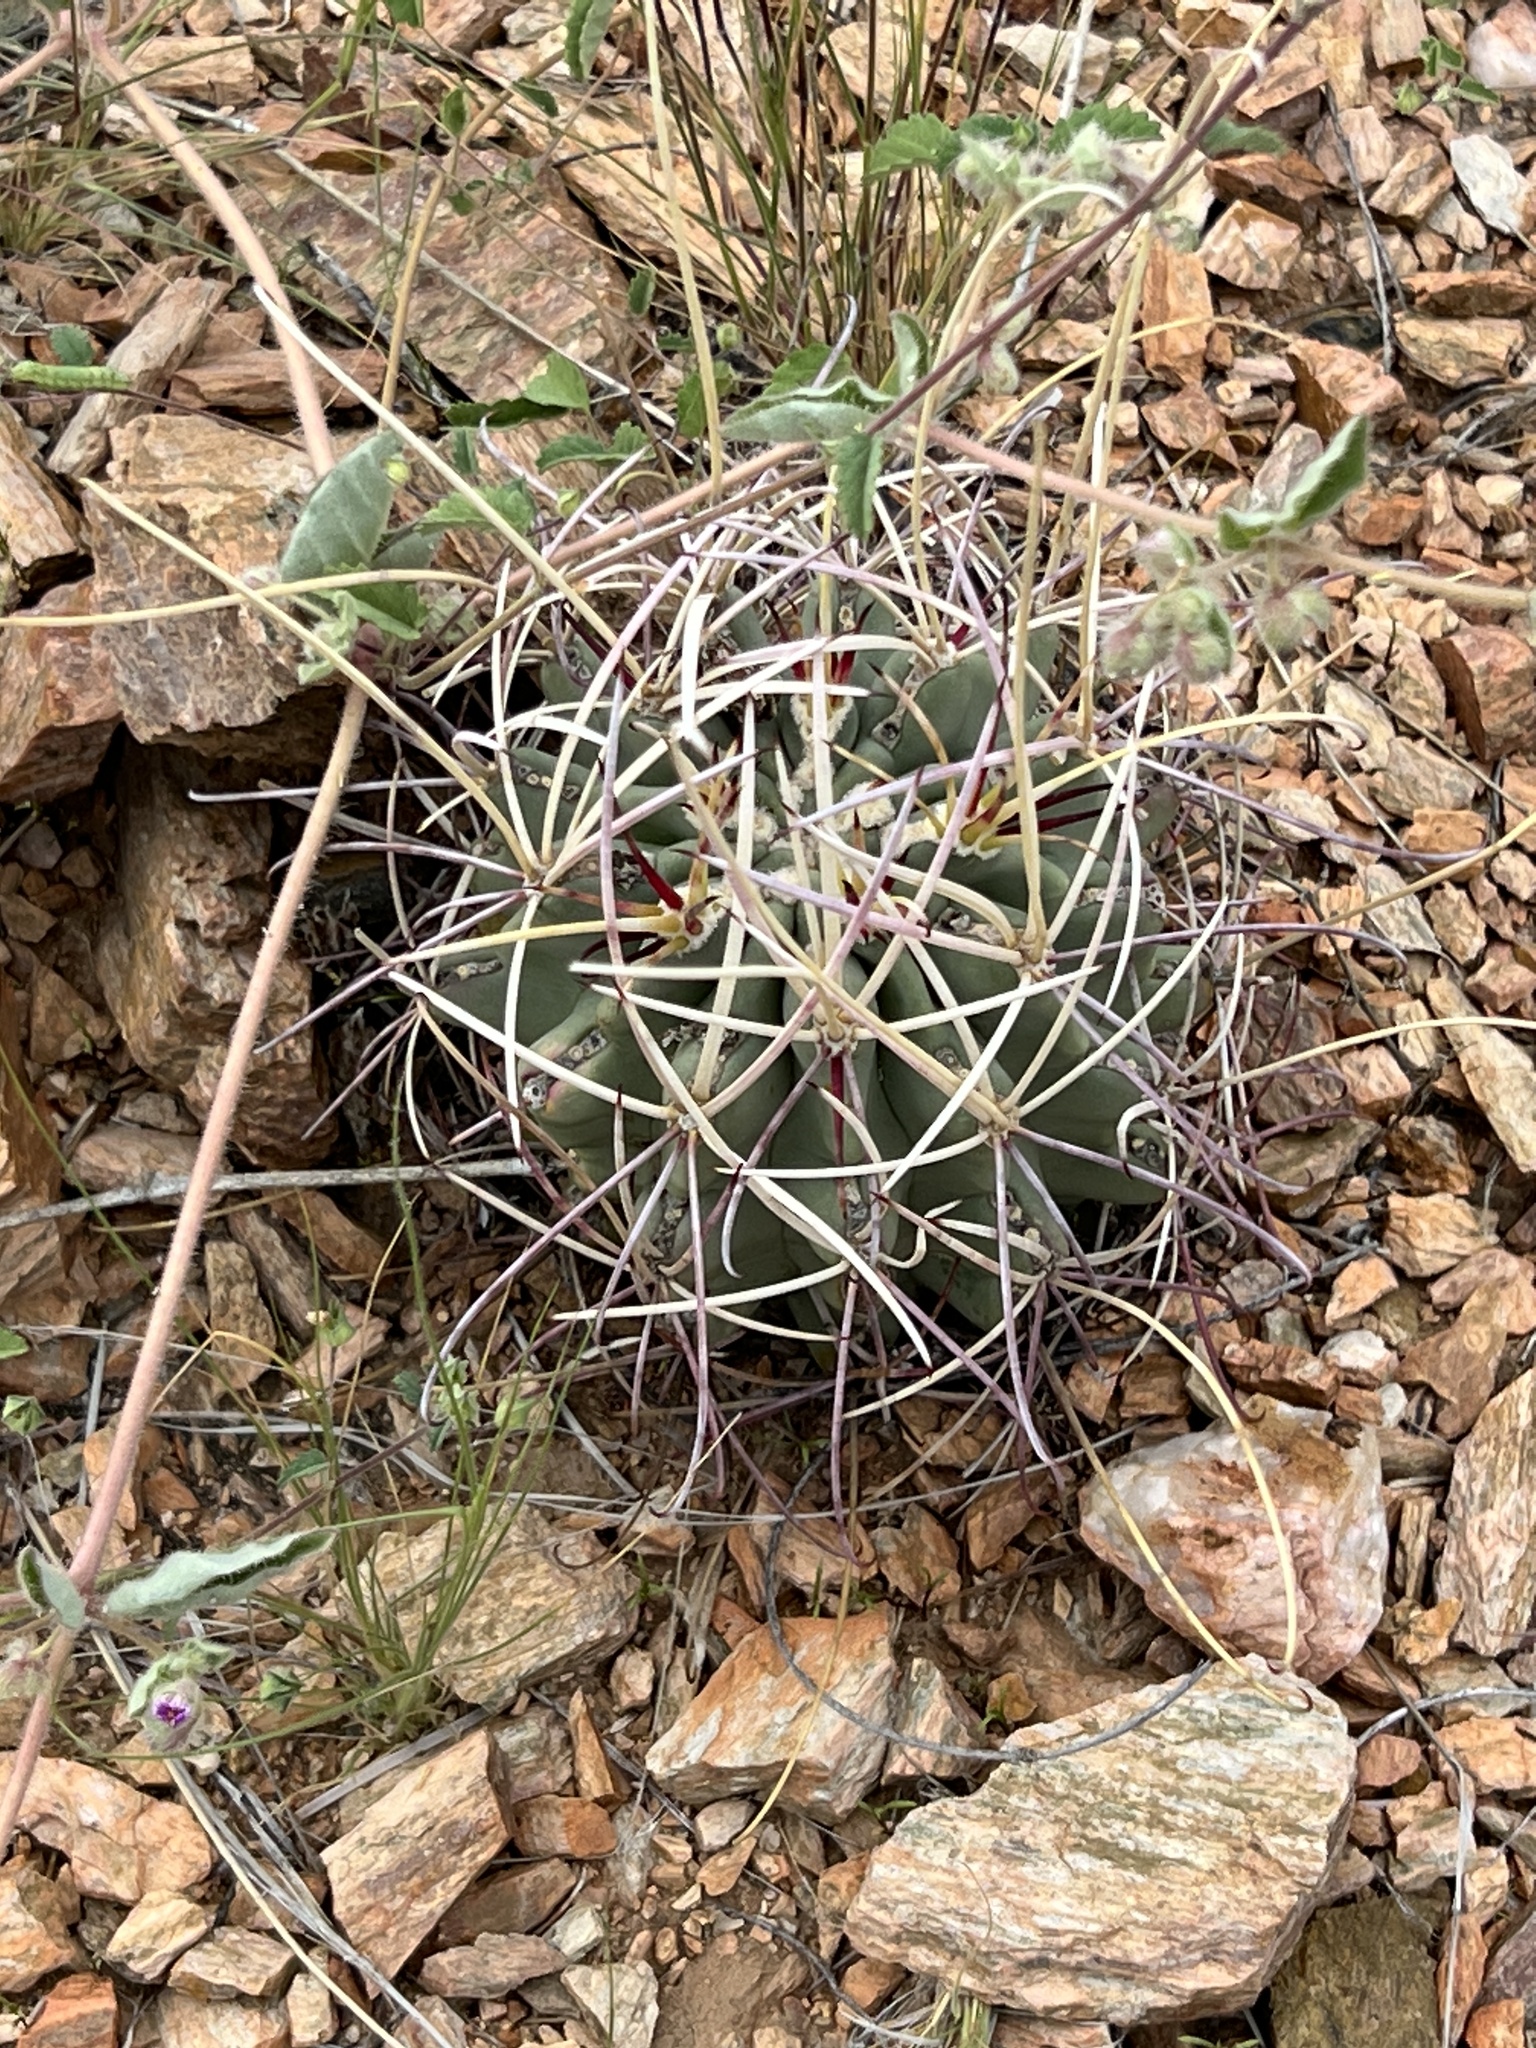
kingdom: Plantae
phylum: Tracheophyta
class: Magnoliopsida
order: Caryophyllales
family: Cactaceae
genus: Ferocactus
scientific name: Ferocactus uncinatus
